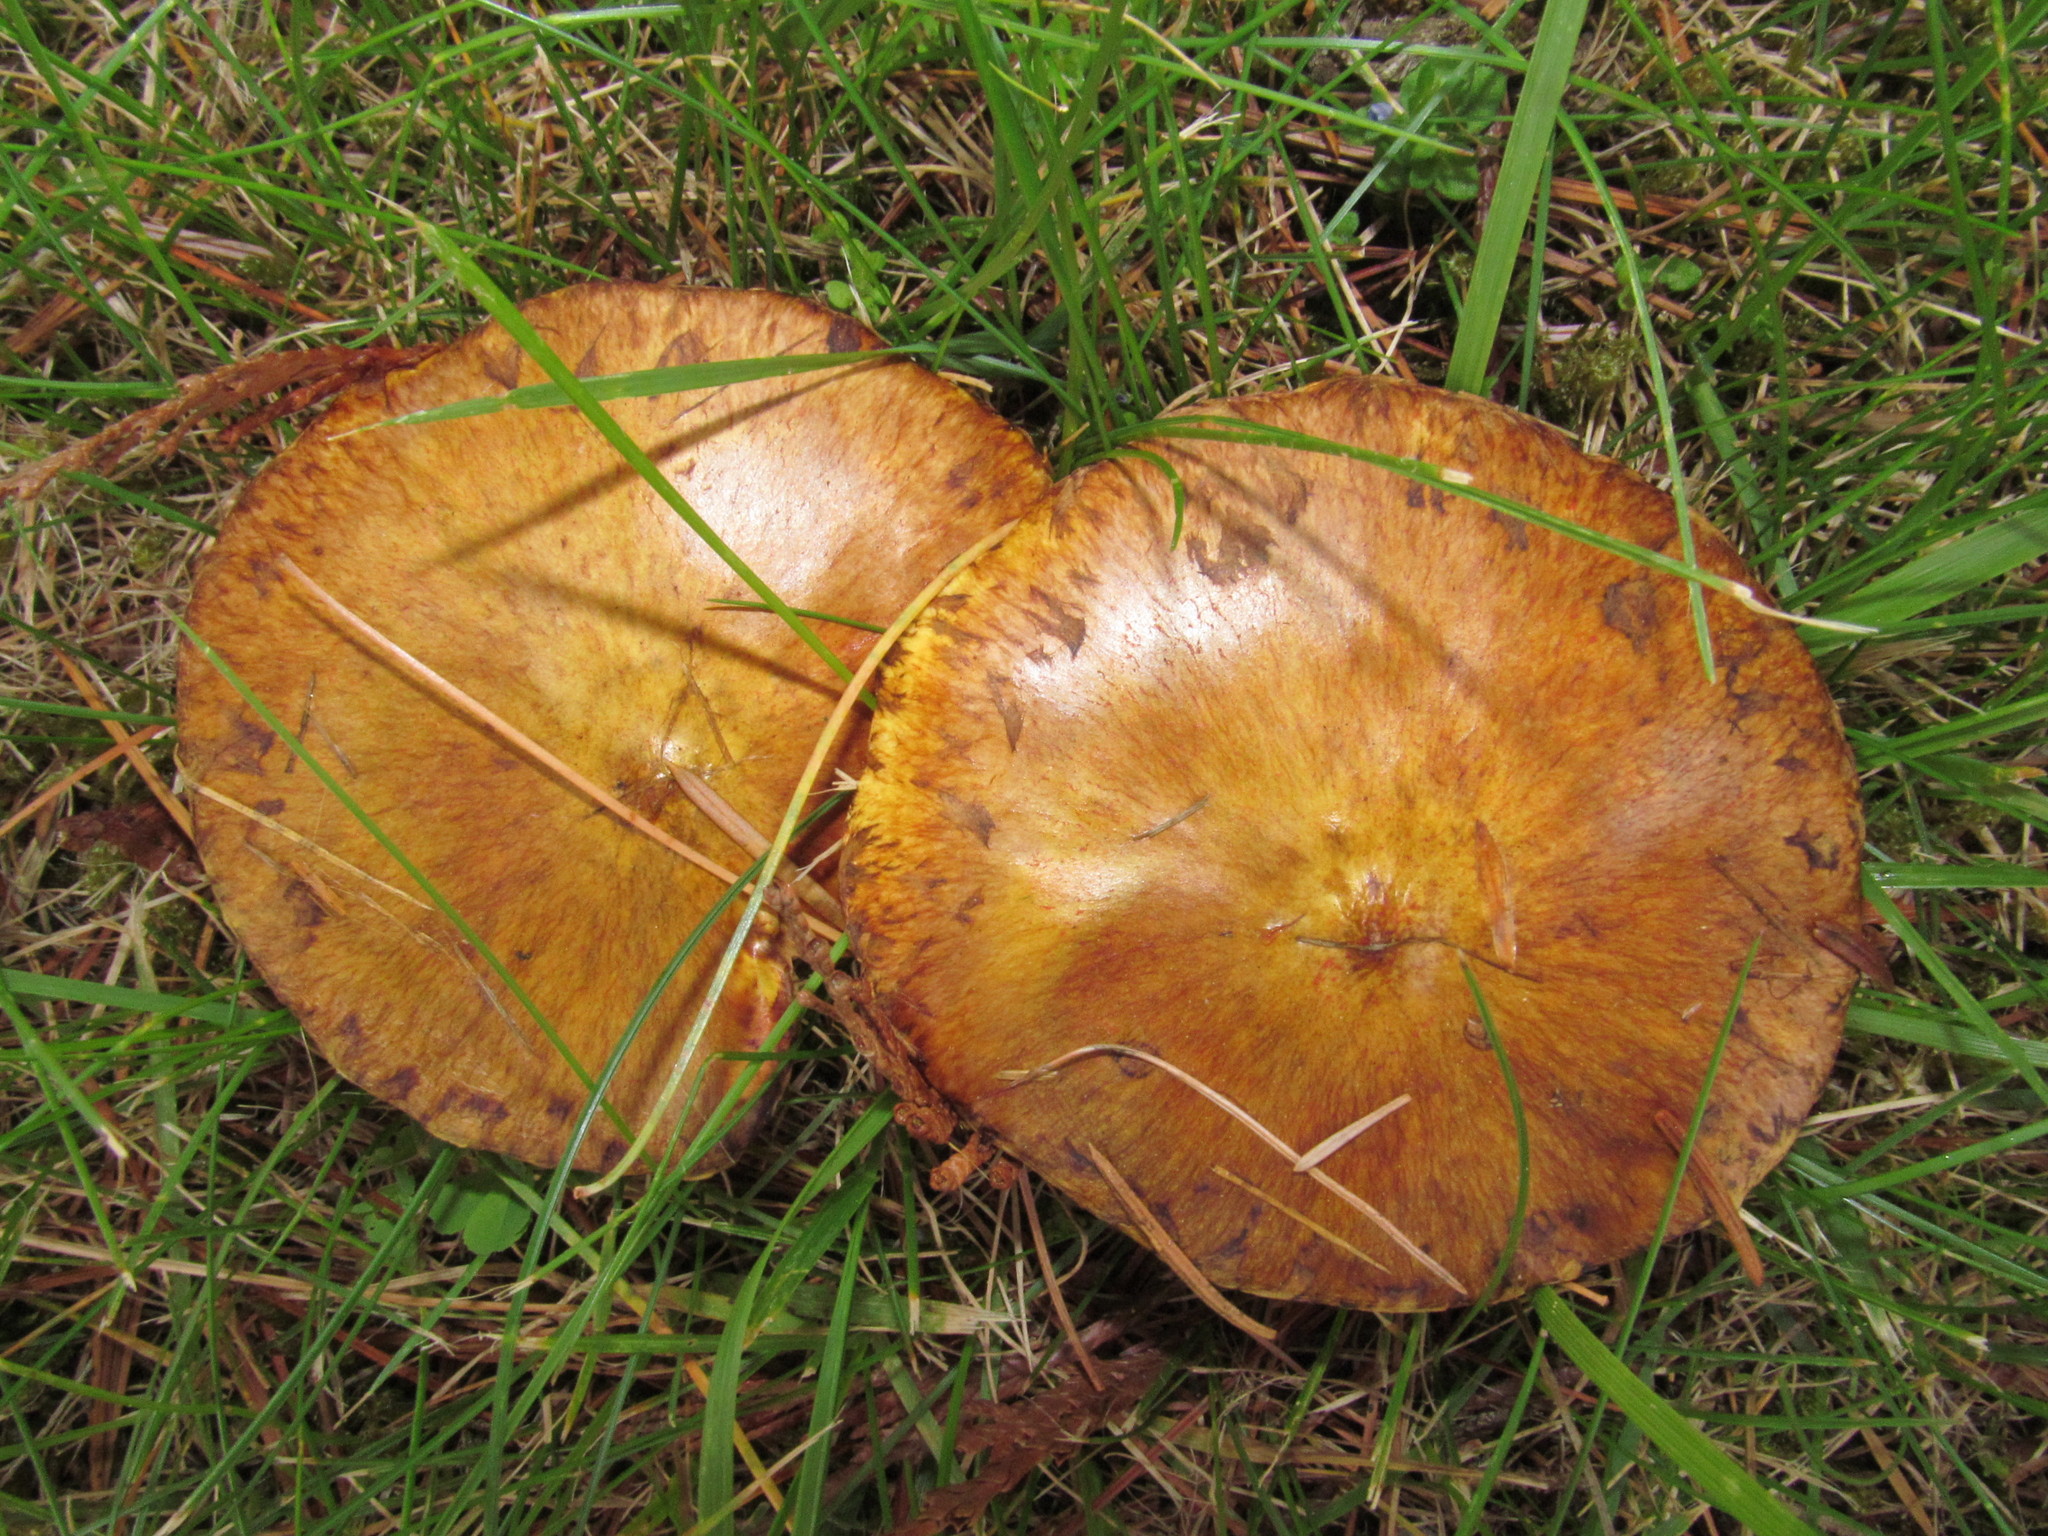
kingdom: Fungi
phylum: Basidiomycota
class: Agaricomycetes
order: Boletales
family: Suillaceae
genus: Suillus
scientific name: Suillus americanus
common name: Chicken fat mushroom
